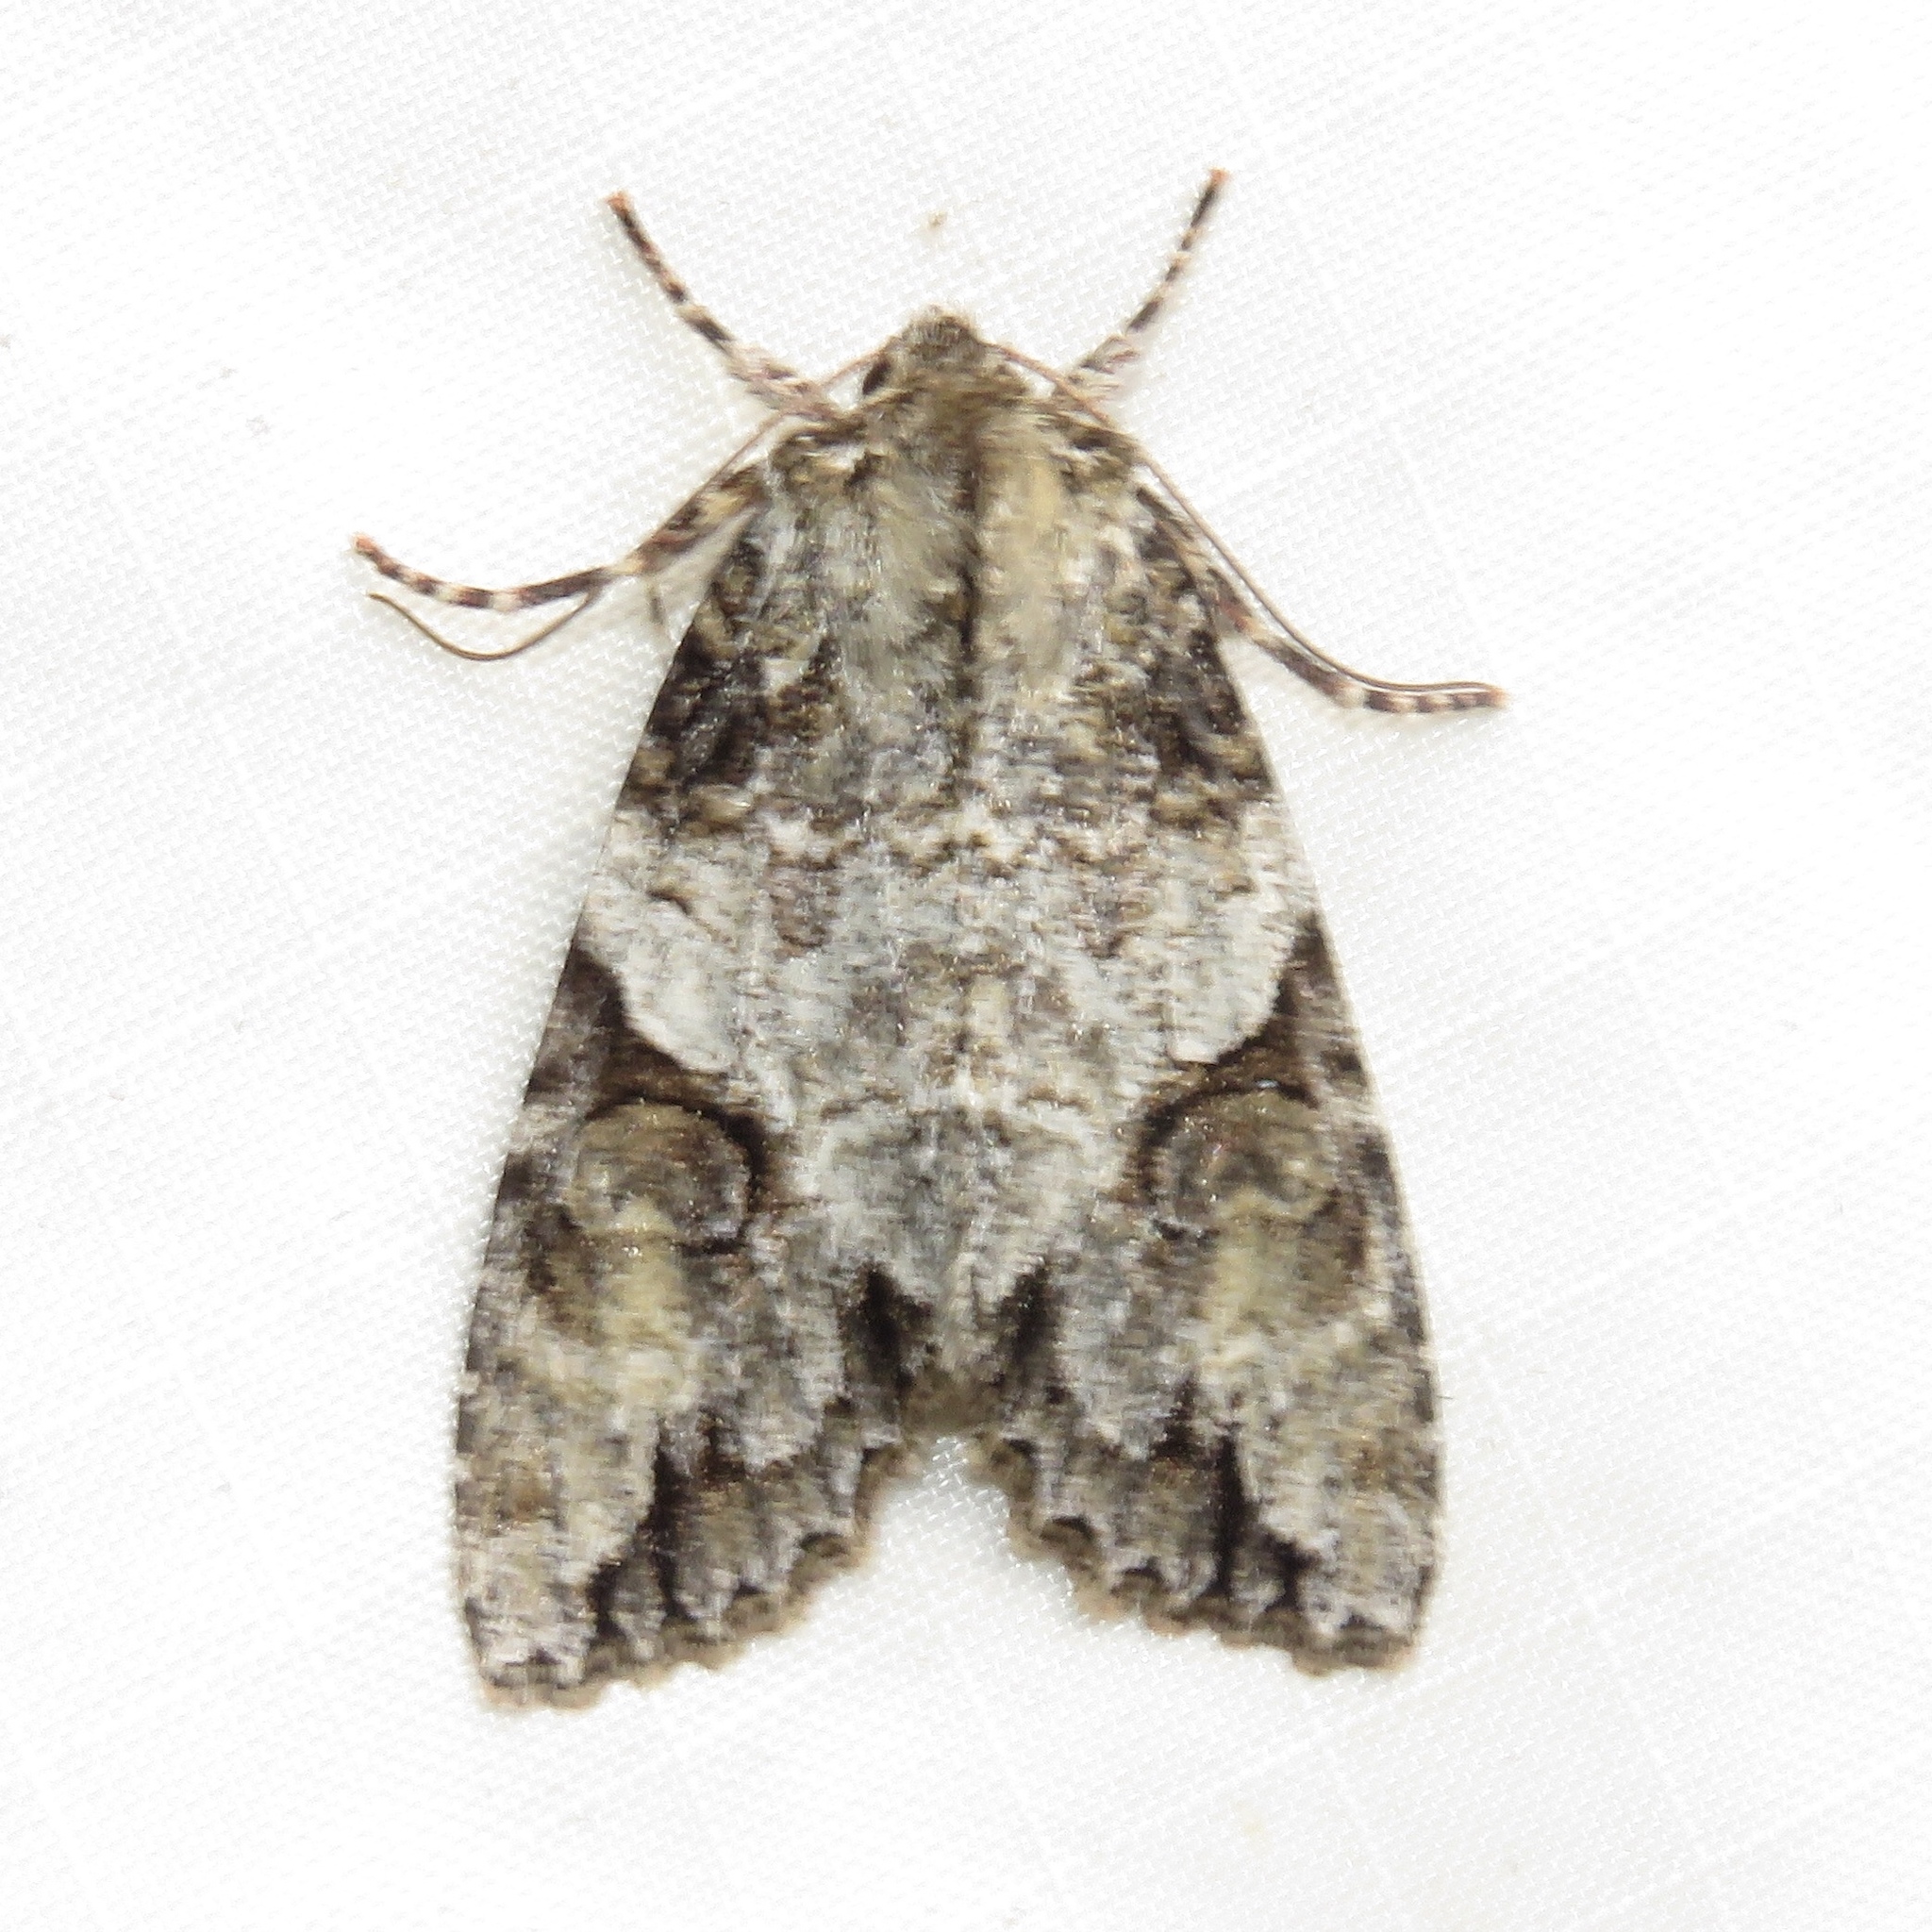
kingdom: Animalia
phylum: Arthropoda
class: Insecta
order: Lepidoptera
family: Noctuidae
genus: Achatia
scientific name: Achatia latex
